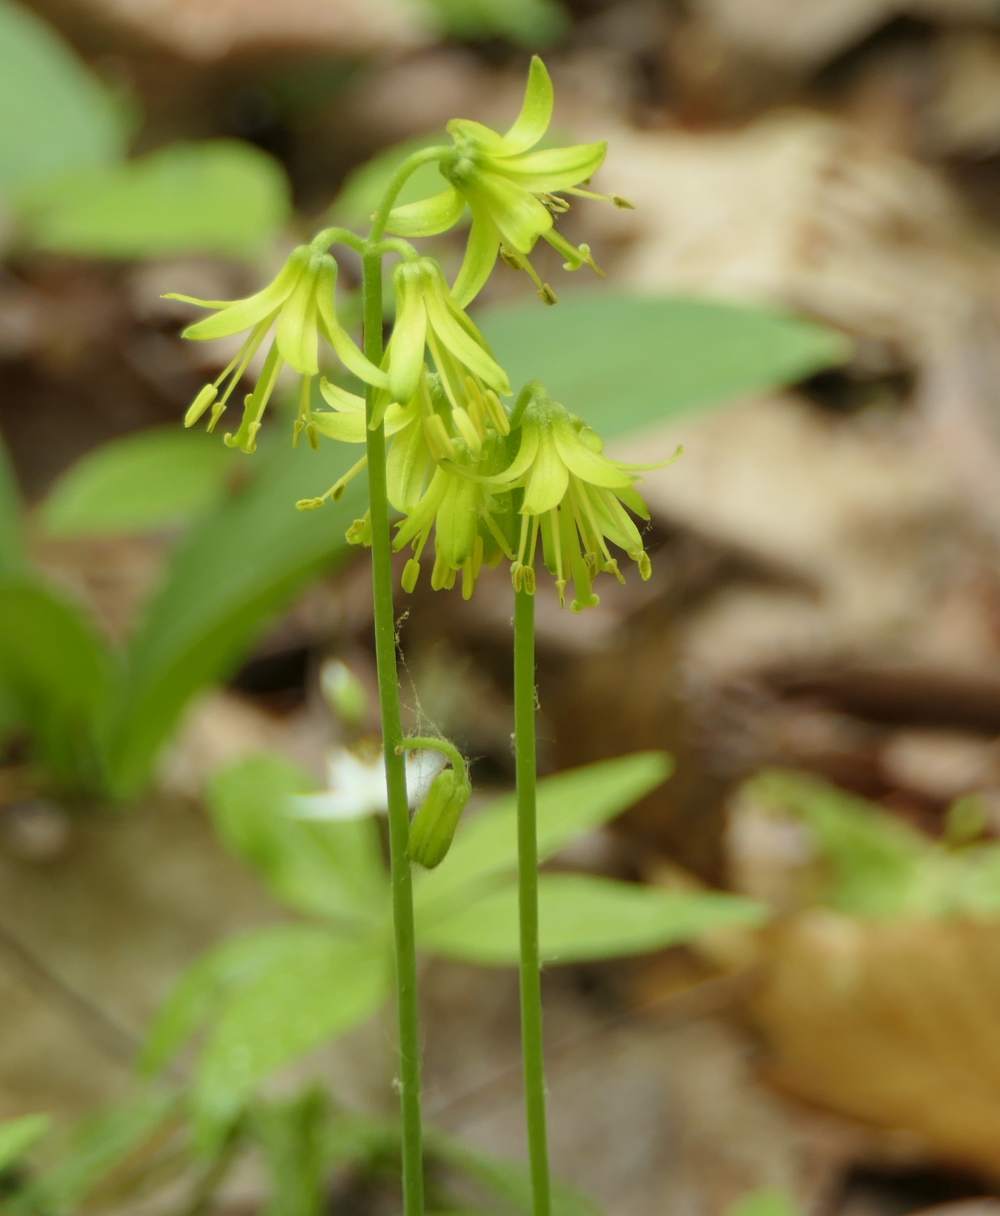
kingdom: Plantae
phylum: Tracheophyta
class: Liliopsida
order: Liliales
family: Liliaceae
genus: Clintonia
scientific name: Clintonia borealis
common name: Yellow clintonia
